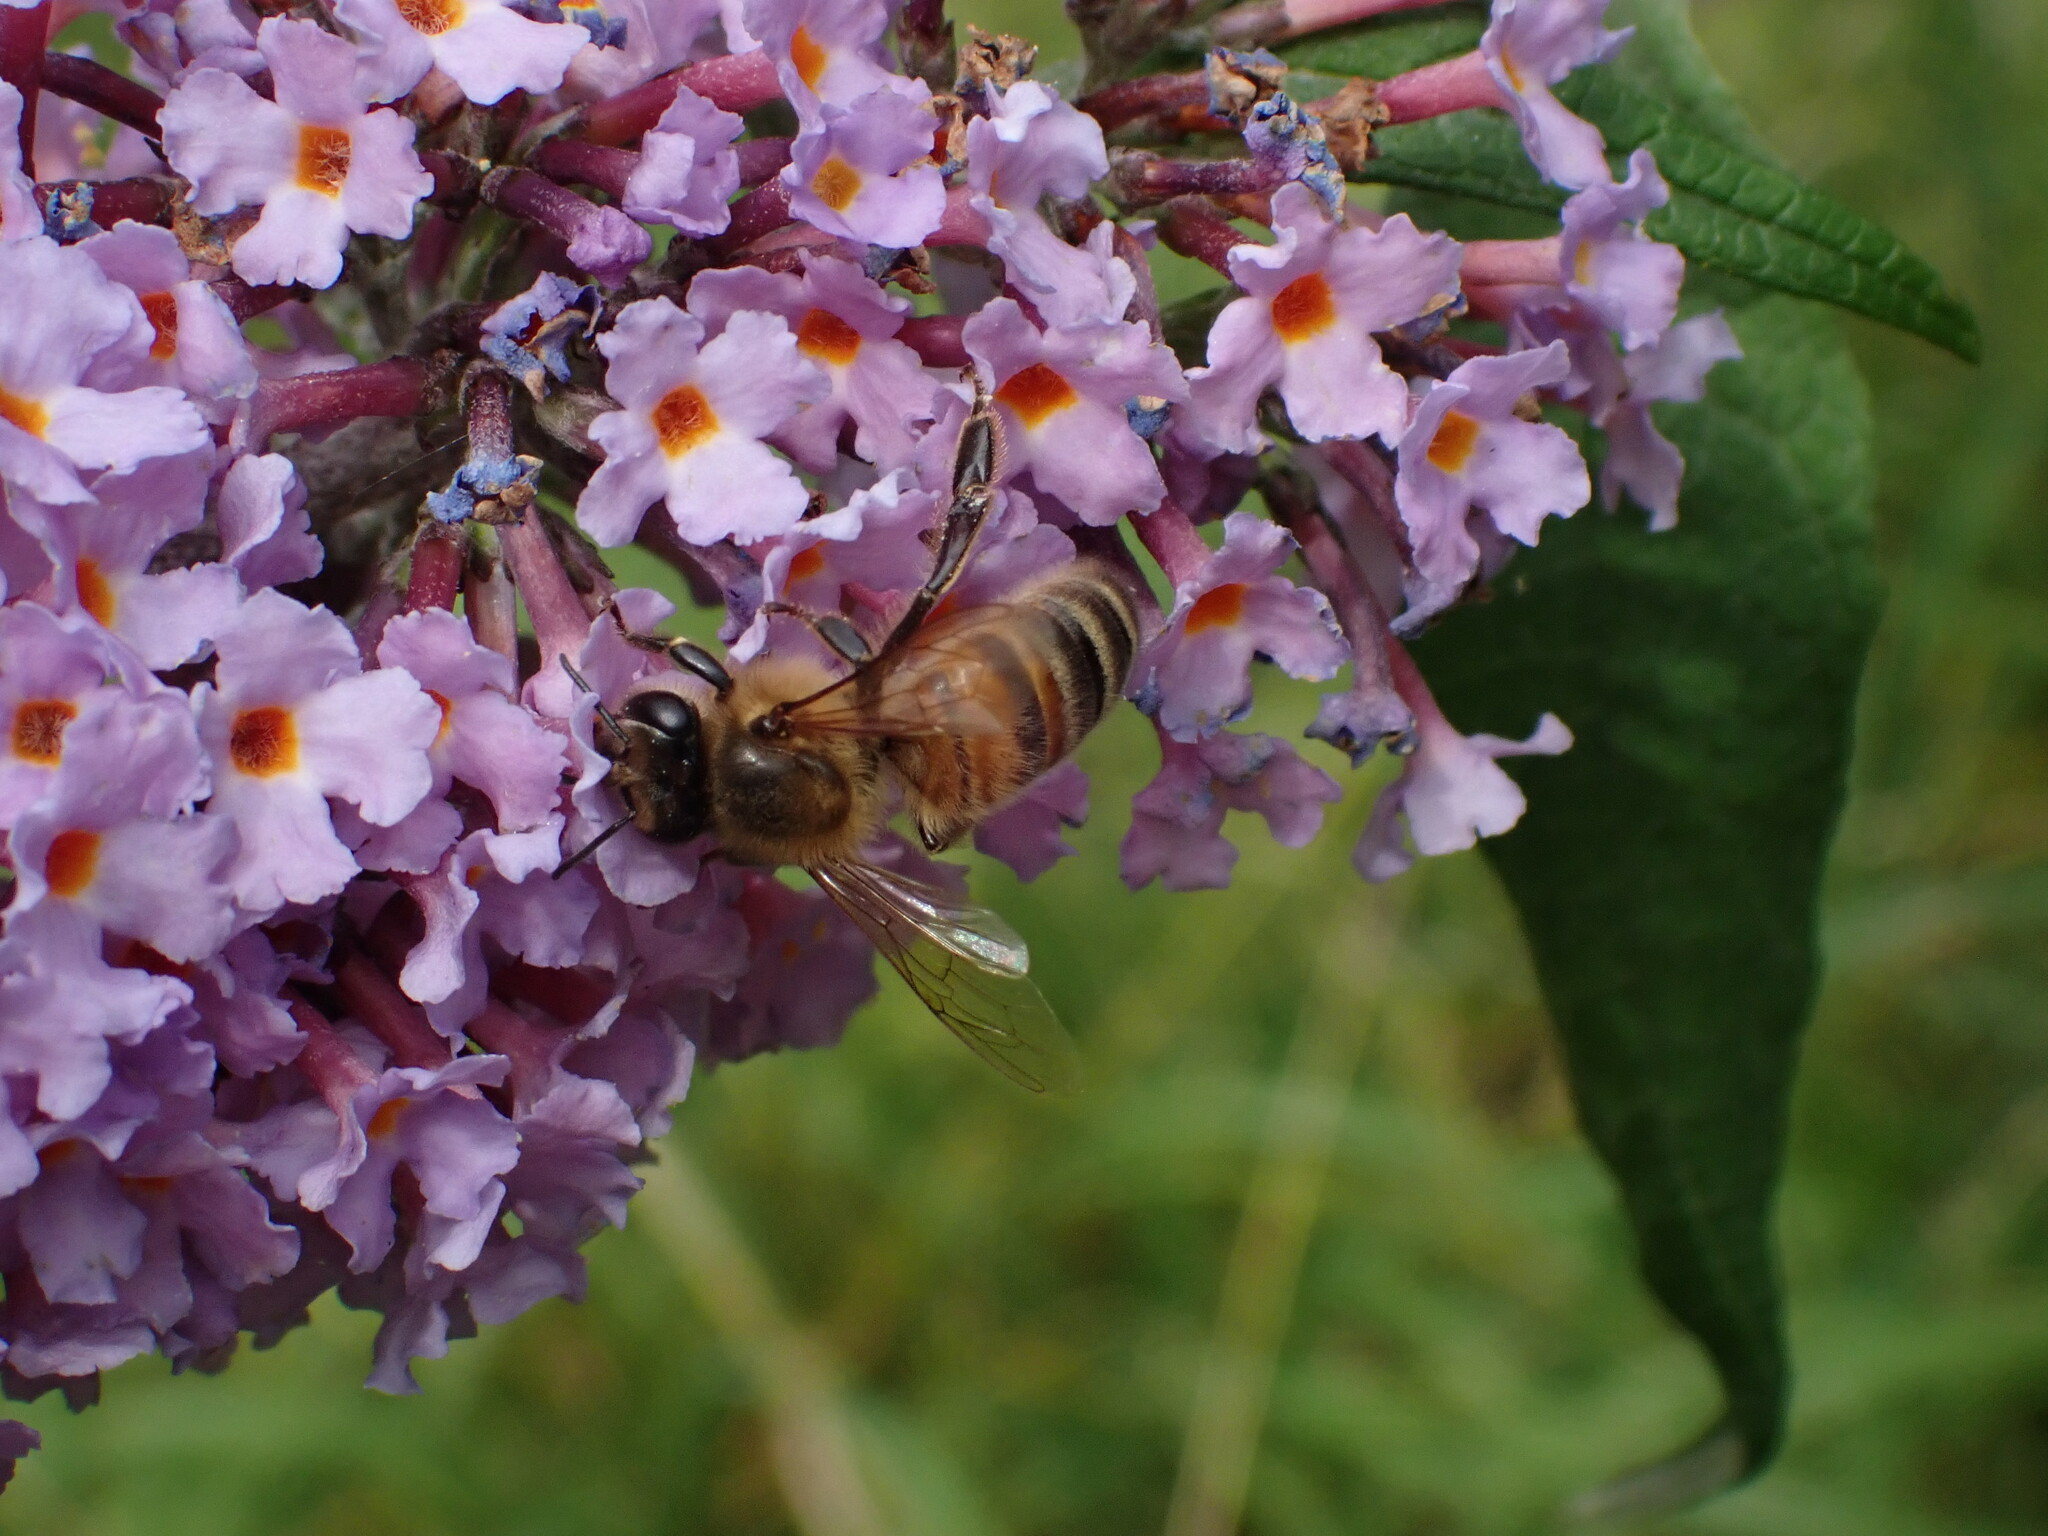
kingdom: Animalia
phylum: Arthropoda
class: Insecta
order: Hymenoptera
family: Apidae
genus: Apis
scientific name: Apis mellifera
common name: Honey bee
